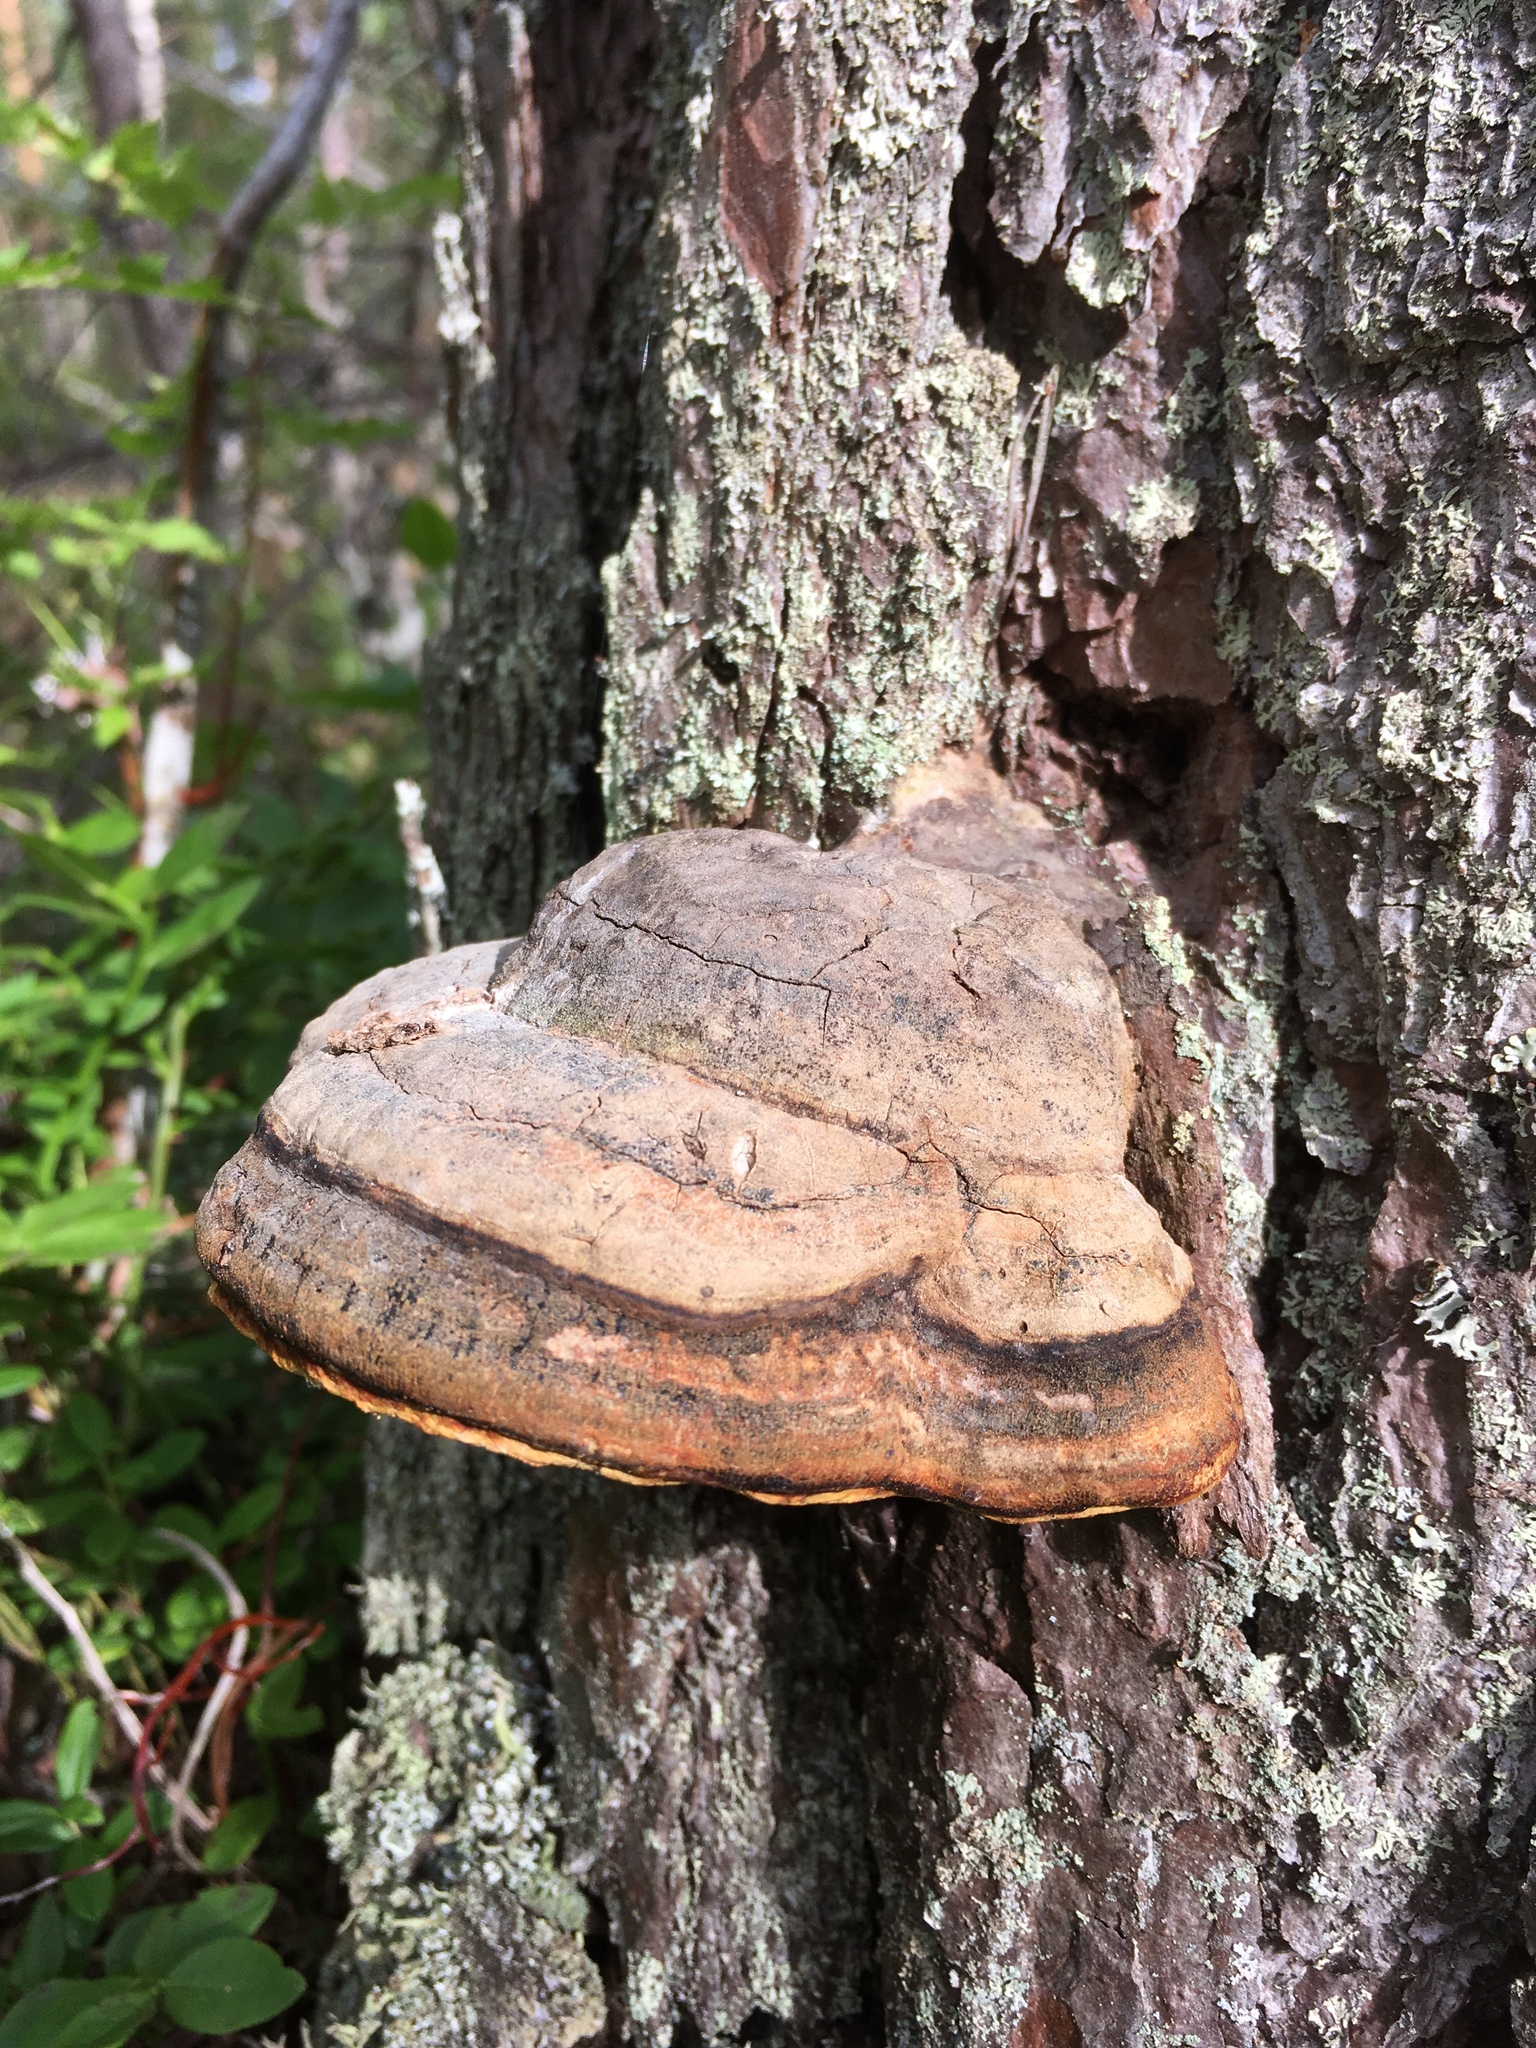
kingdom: Fungi
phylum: Basidiomycota
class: Agaricomycetes
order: Polyporales
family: Fomitopsidaceae
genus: Fomitopsis
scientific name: Fomitopsis pinicola
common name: Red-belted bracket
